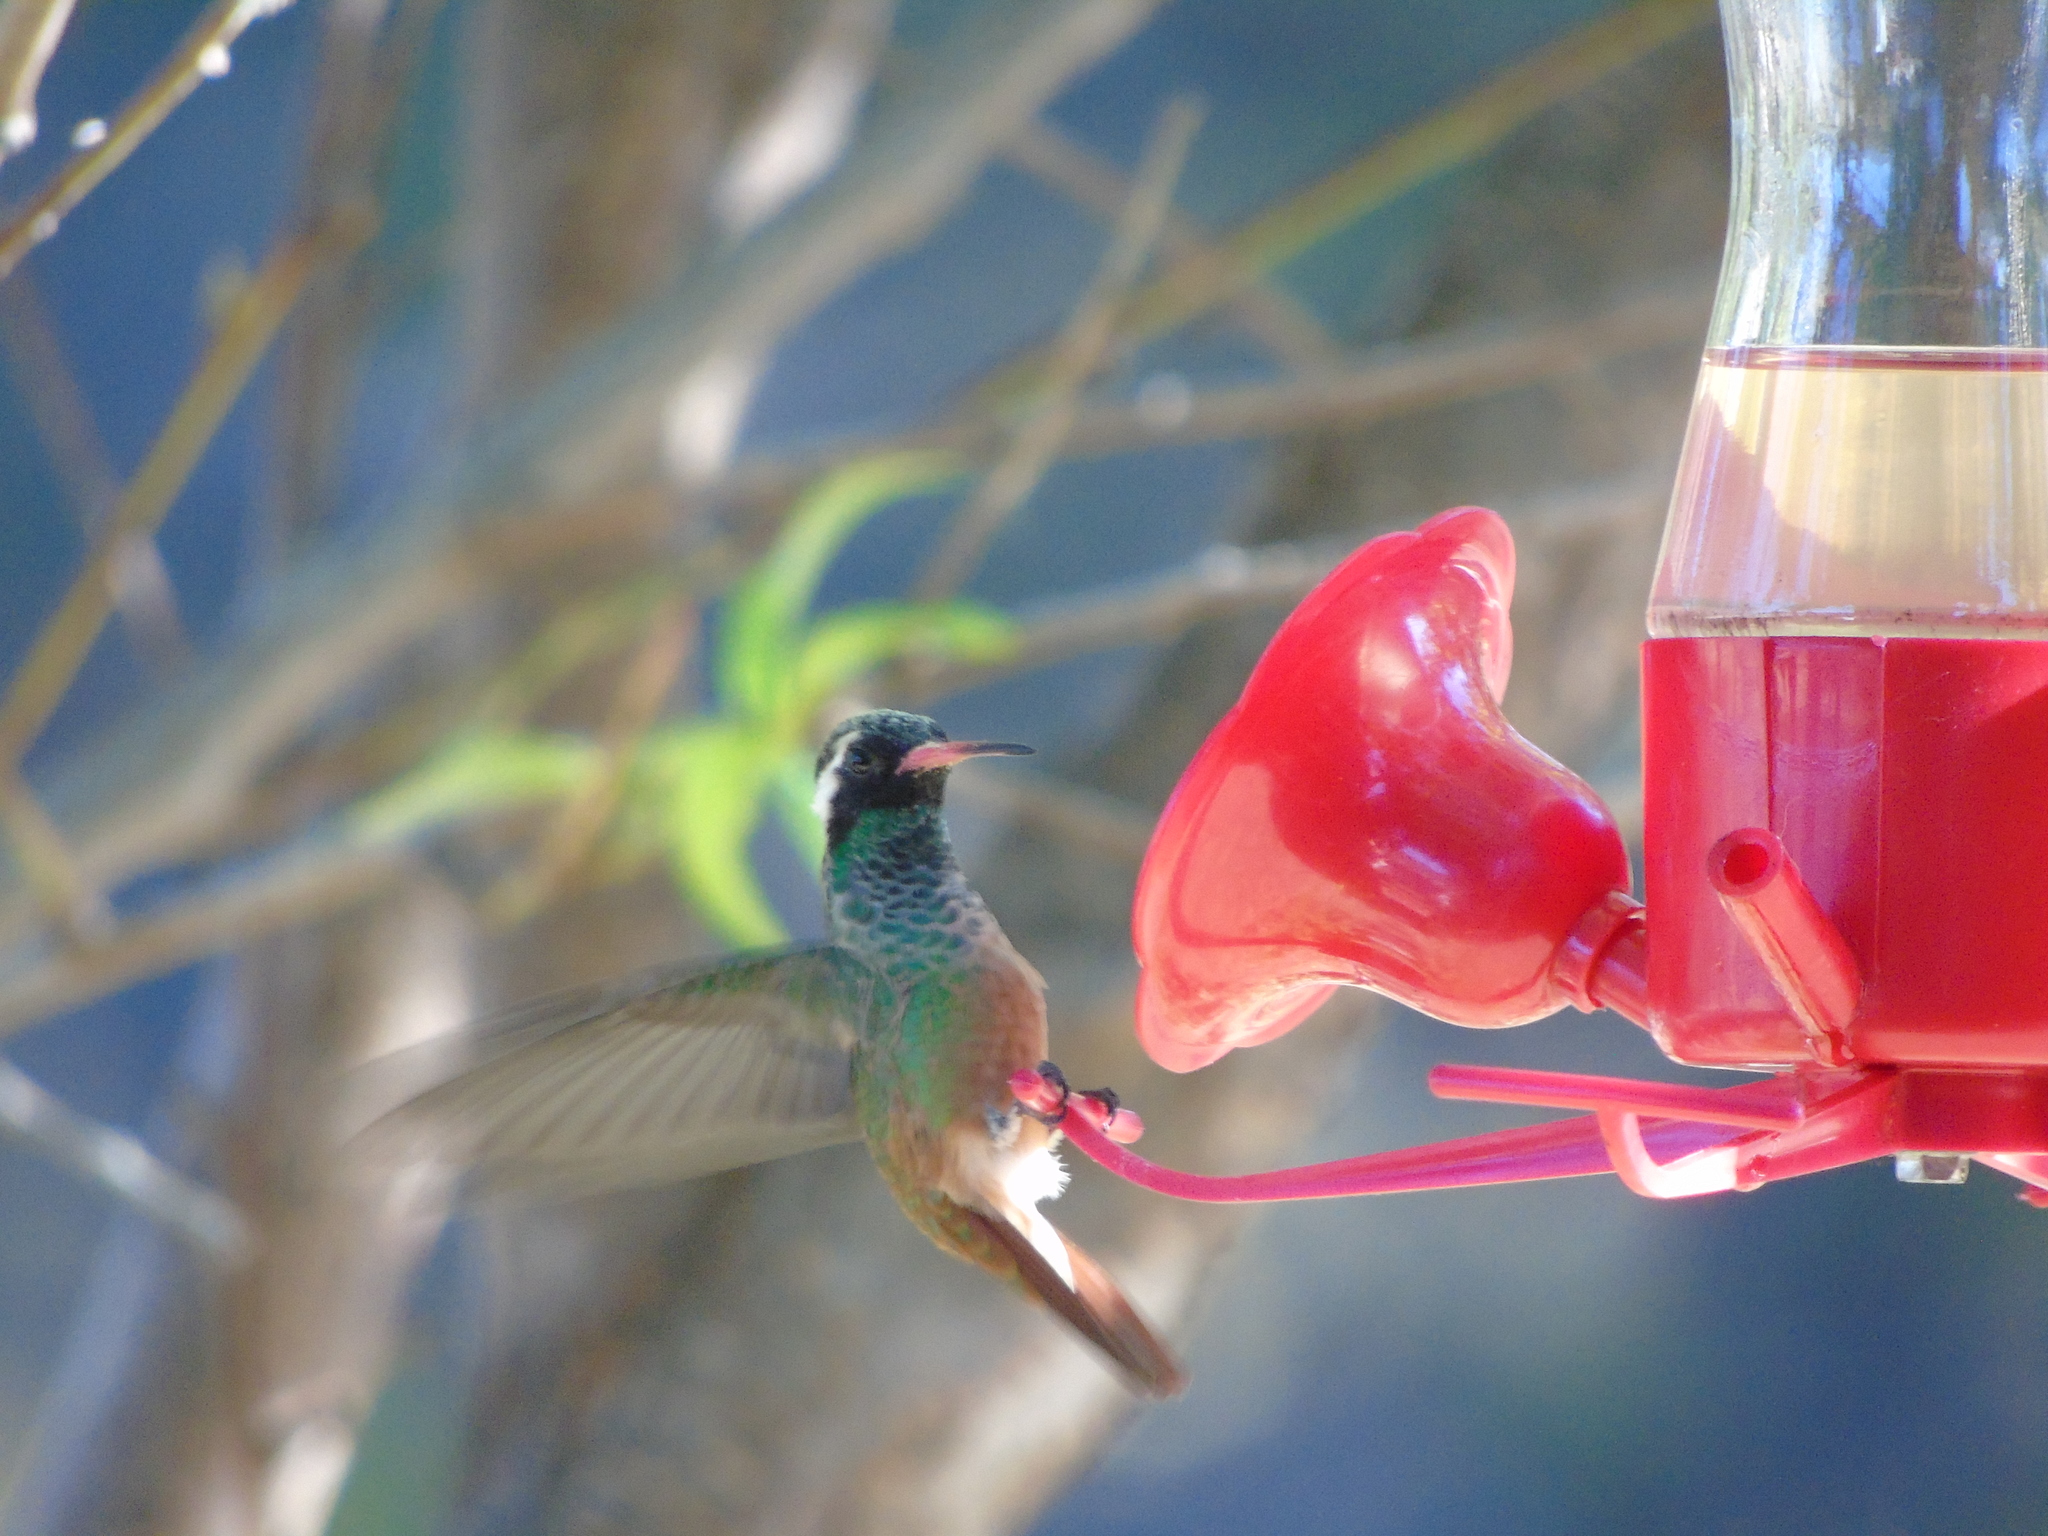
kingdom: Animalia
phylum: Chordata
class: Aves
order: Apodiformes
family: Trochilidae
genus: Basilinna
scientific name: Basilinna xantusii
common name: Xantus's hummingbird
